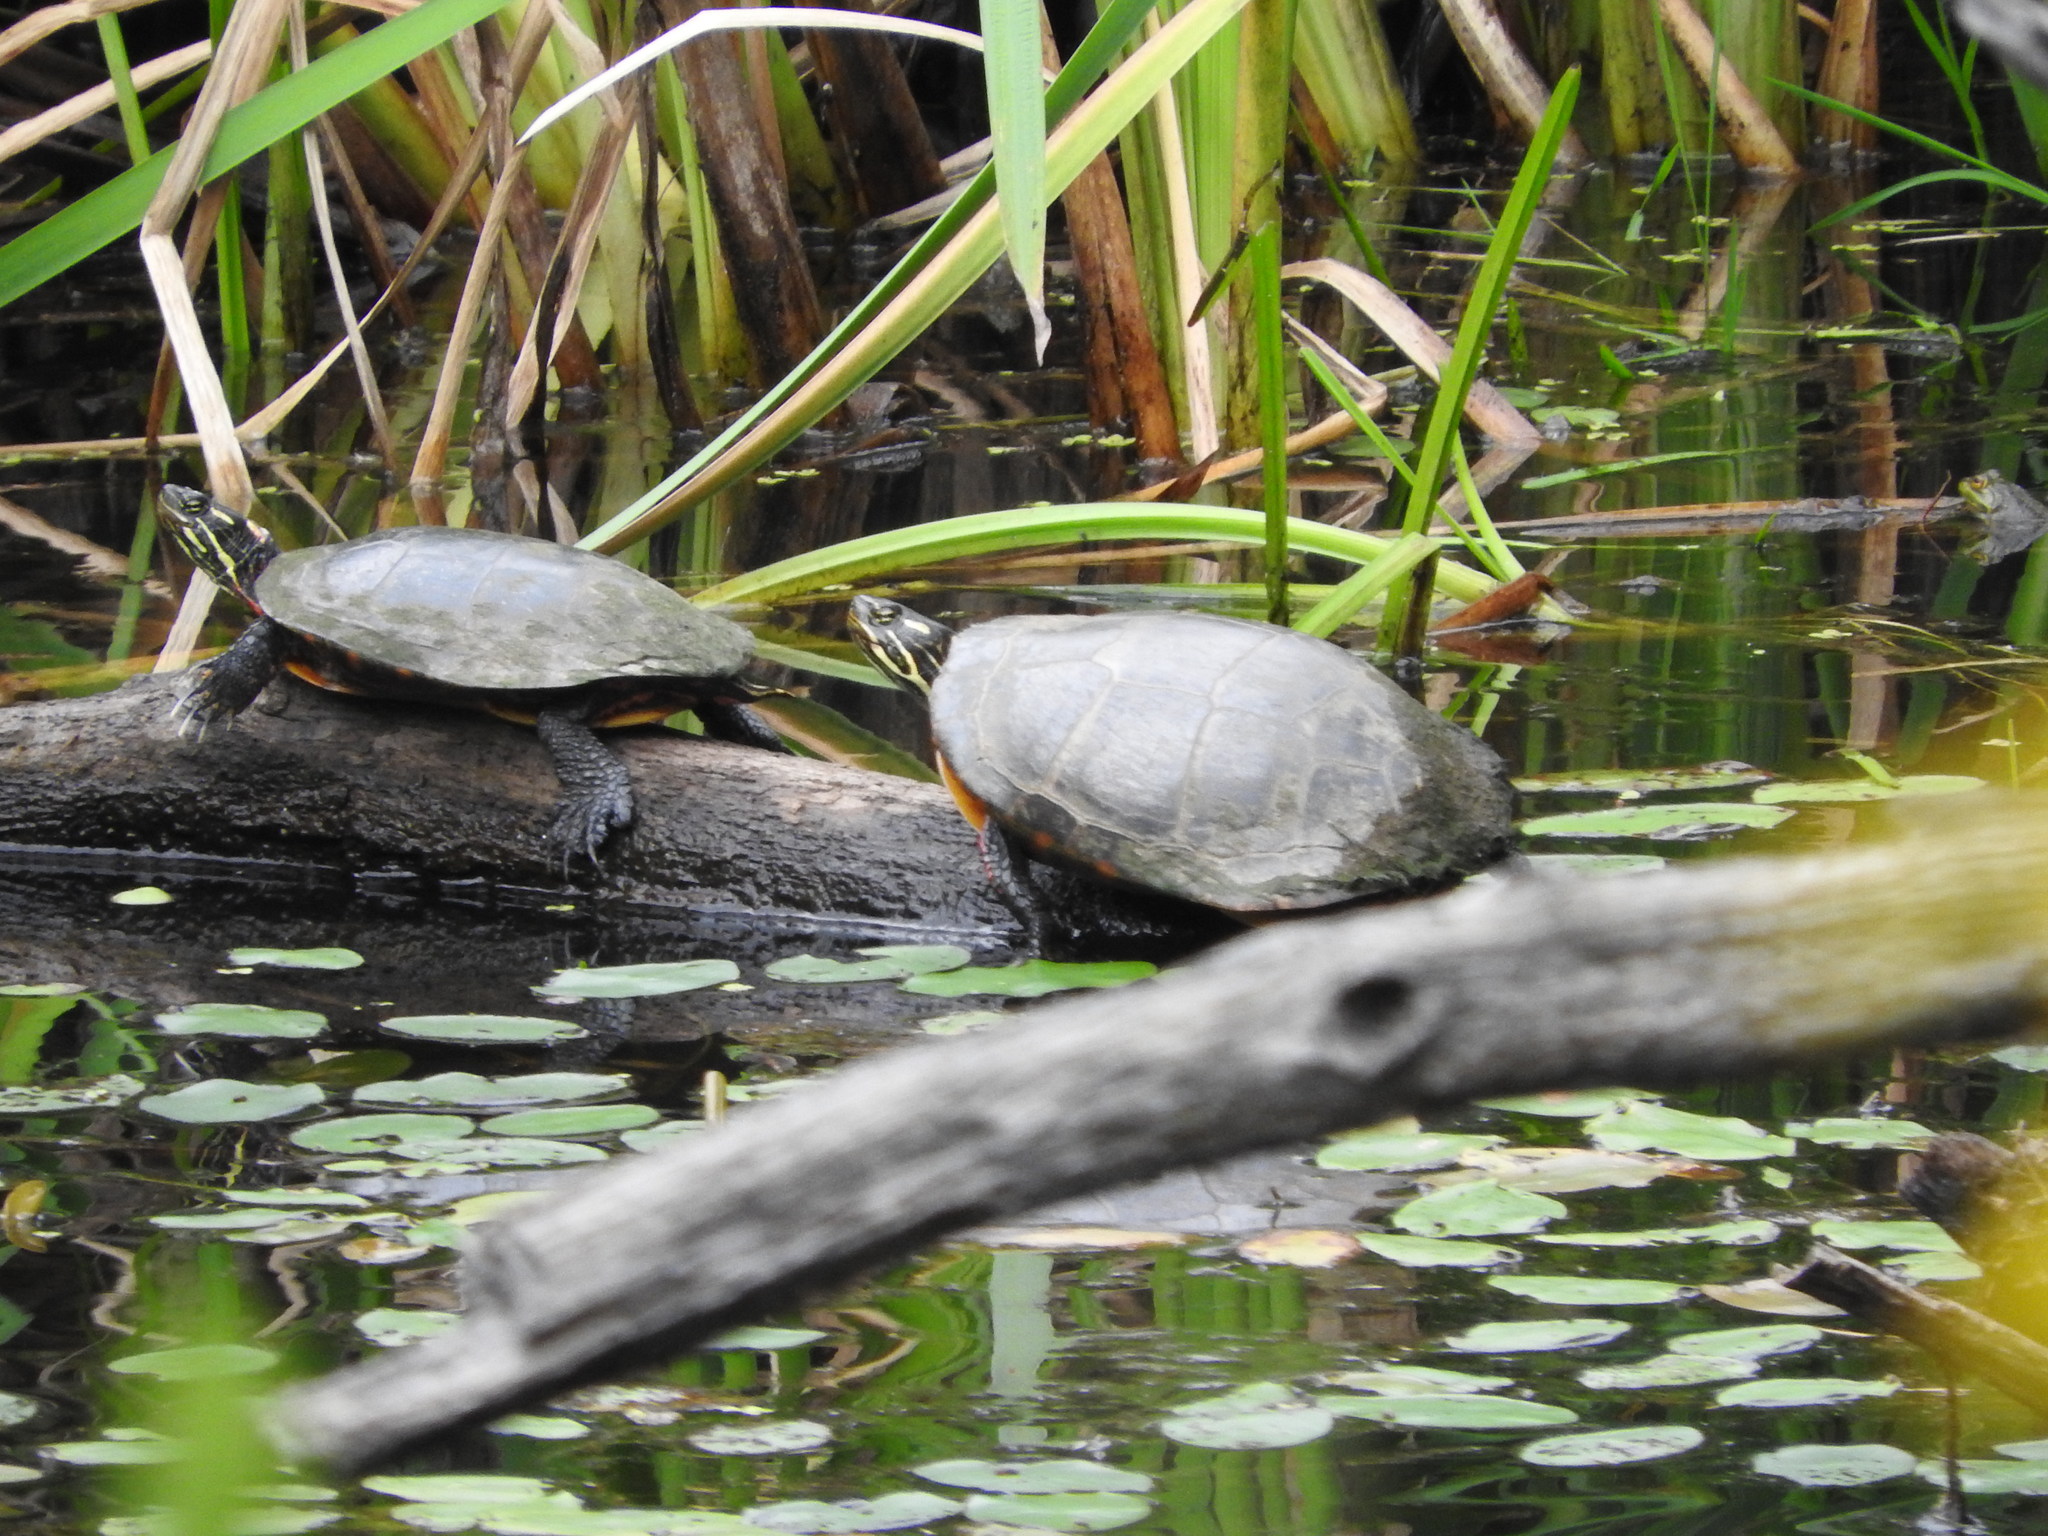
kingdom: Animalia
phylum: Chordata
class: Testudines
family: Emydidae
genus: Chrysemys
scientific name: Chrysemys picta
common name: Painted turtle
